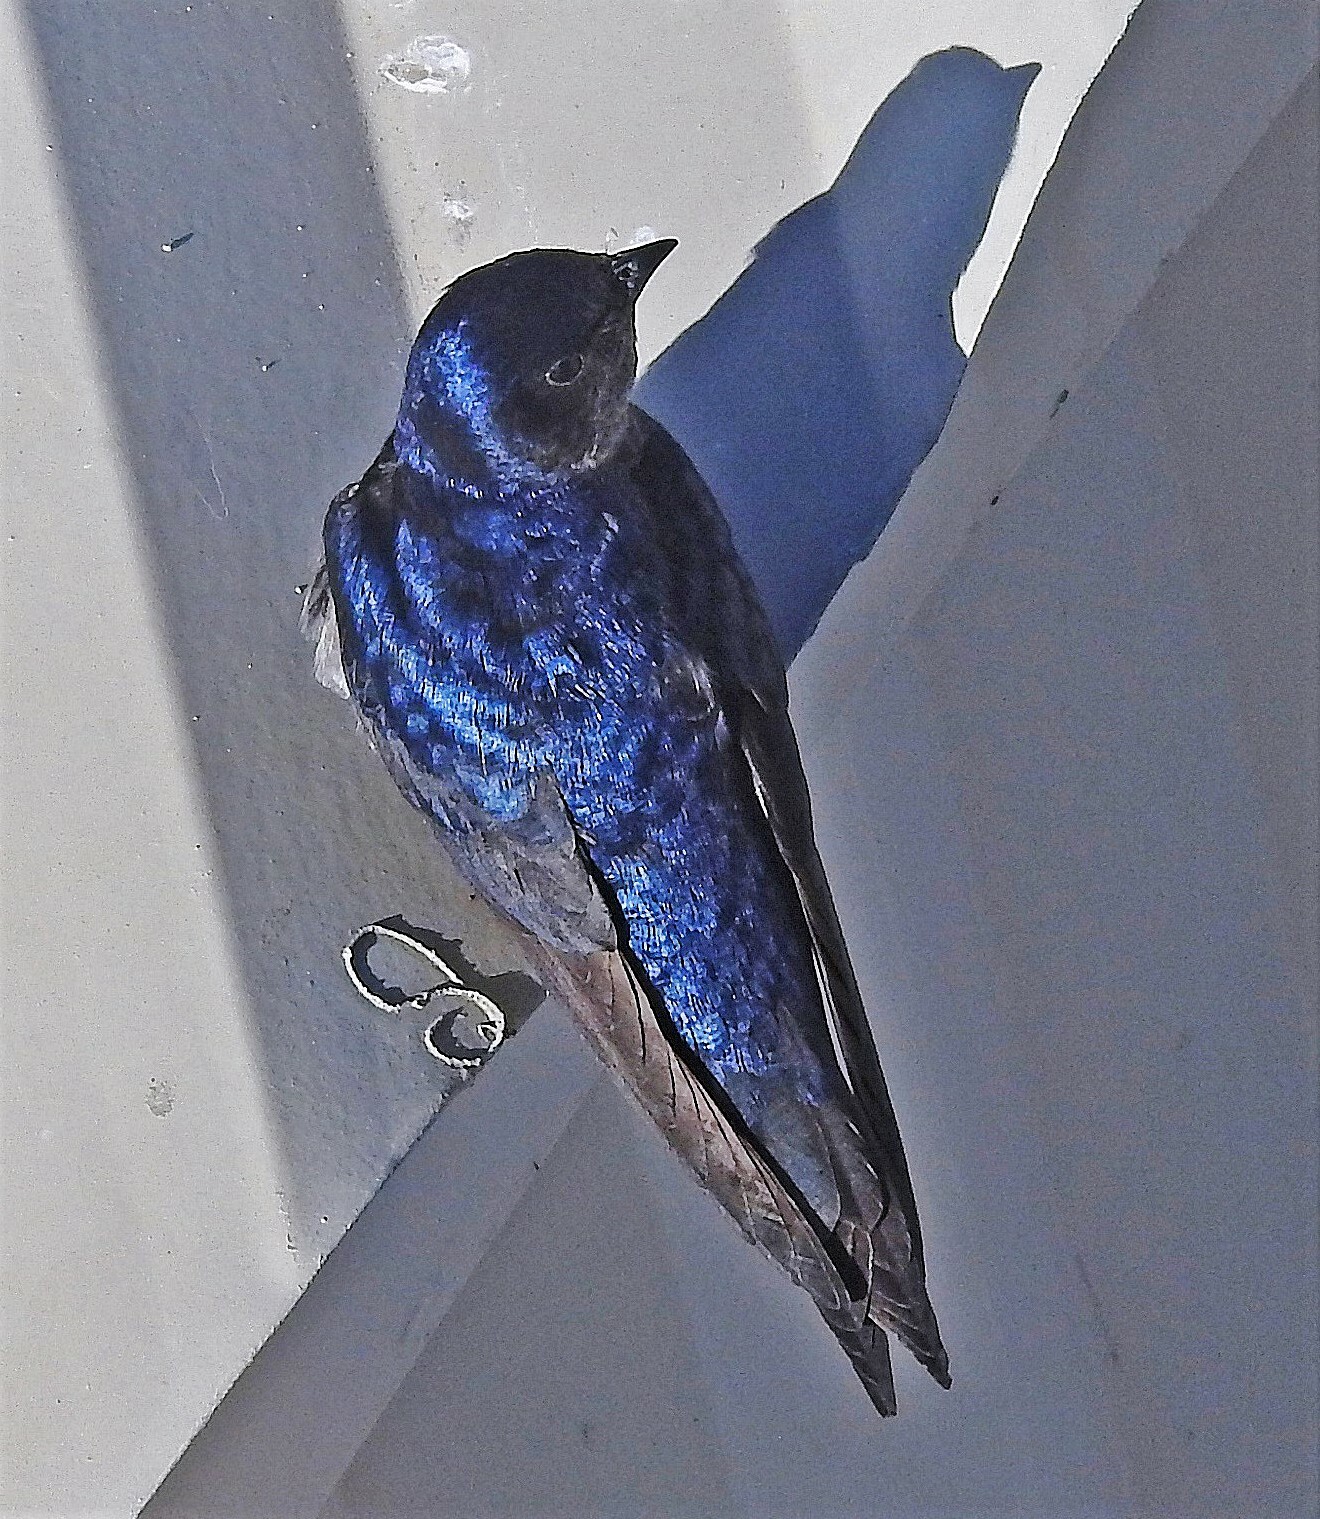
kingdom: Animalia
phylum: Chordata
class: Aves
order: Passeriformes
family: Hirundinidae
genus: Progne
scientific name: Progne elegans
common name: Southern martin
